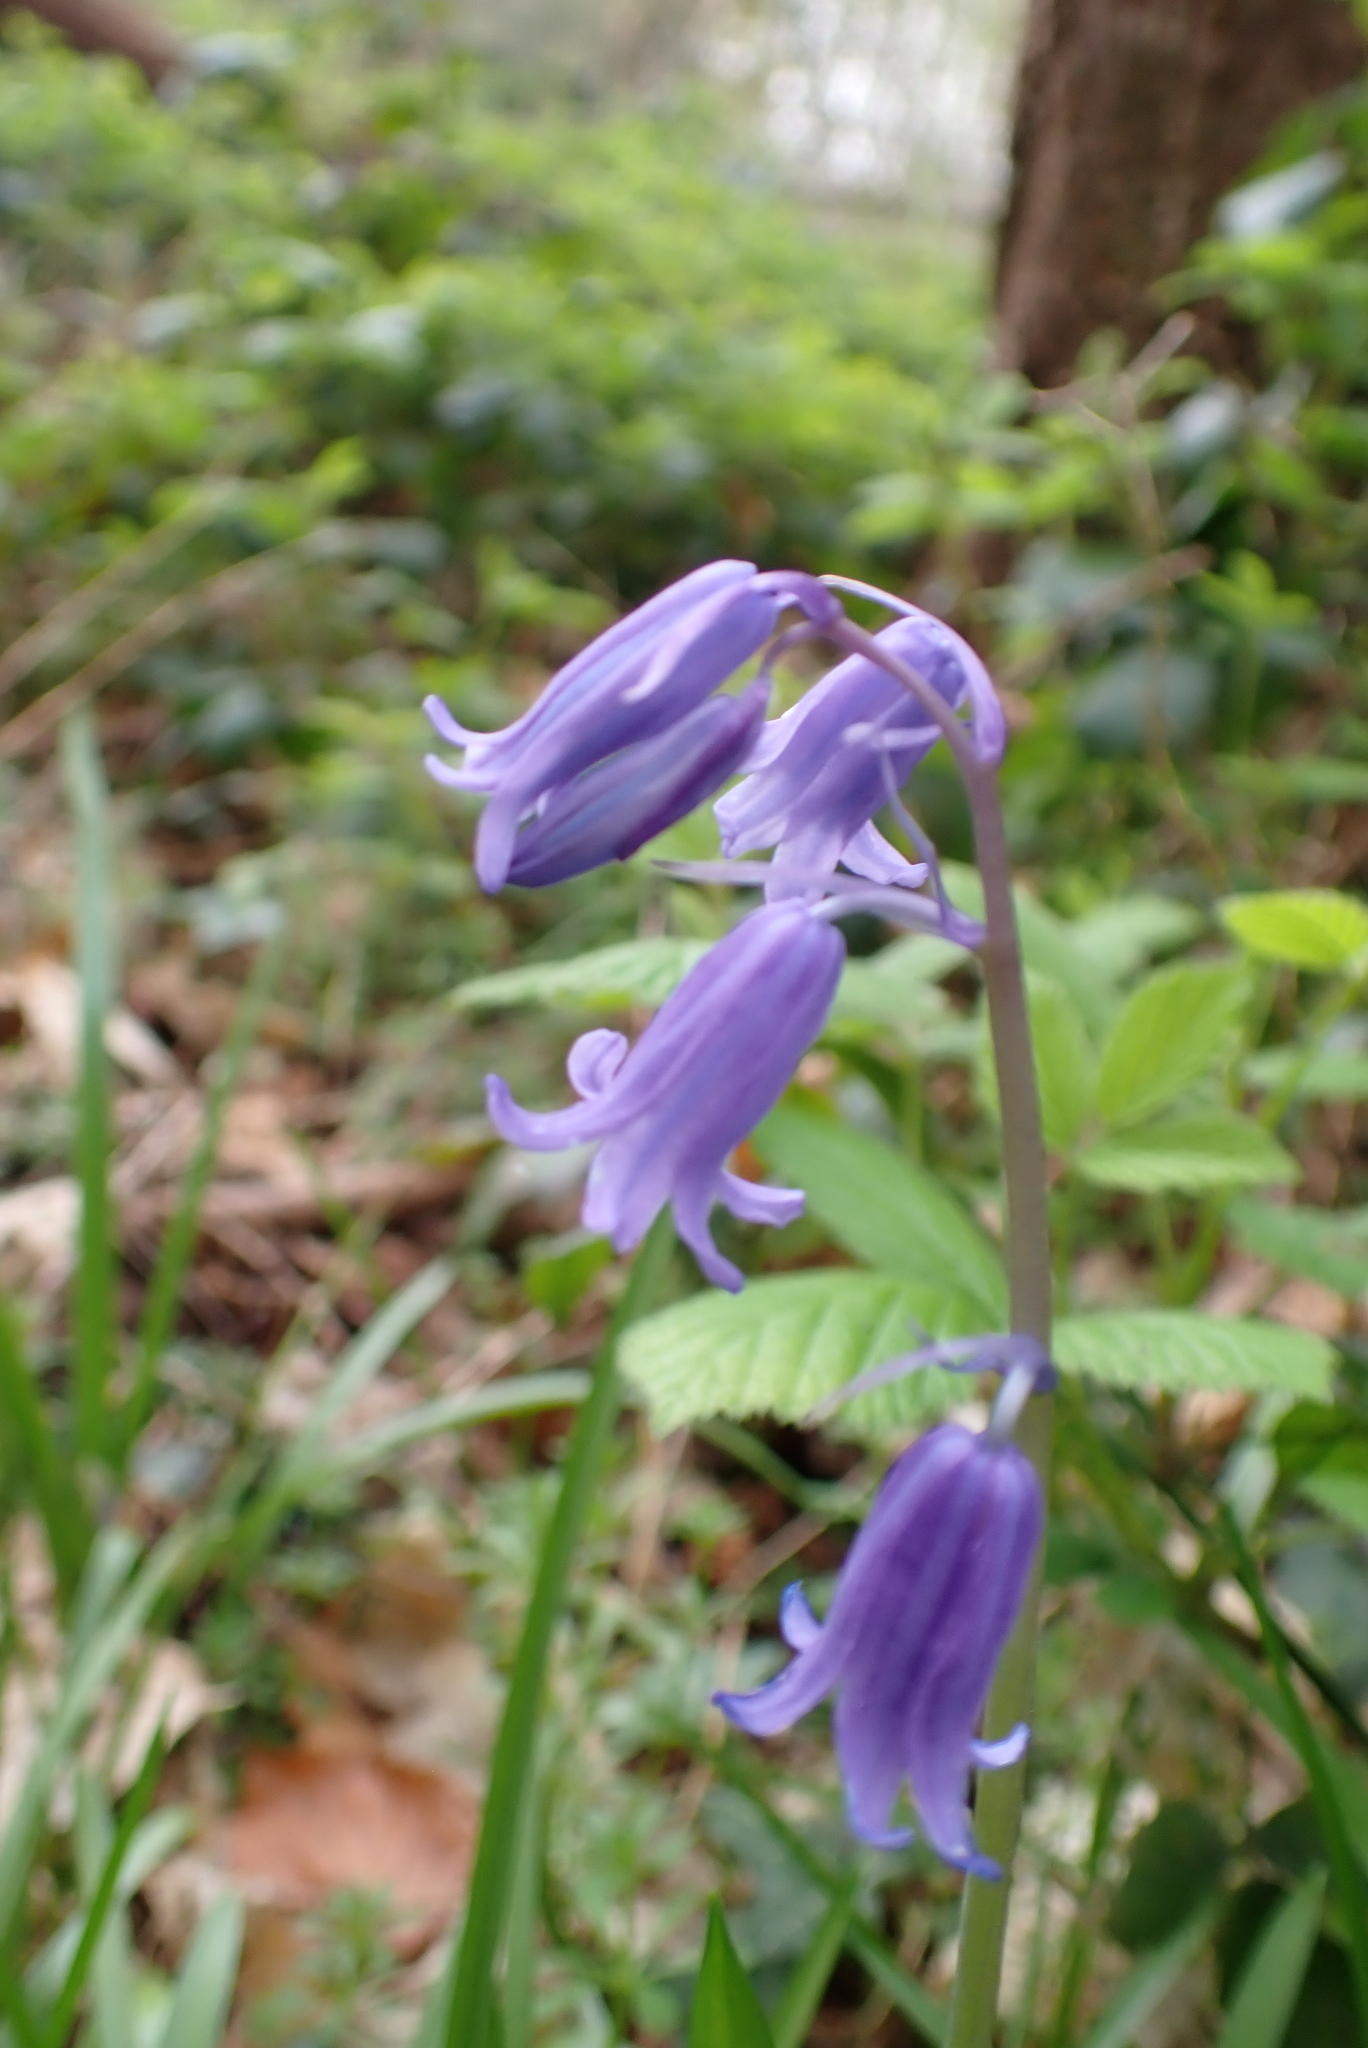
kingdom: Plantae
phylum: Tracheophyta
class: Liliopsida
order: Asparagales
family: Asparagaceae
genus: Hyacinthoides
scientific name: Hyacinthoides non-scripta
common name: Bluebell
